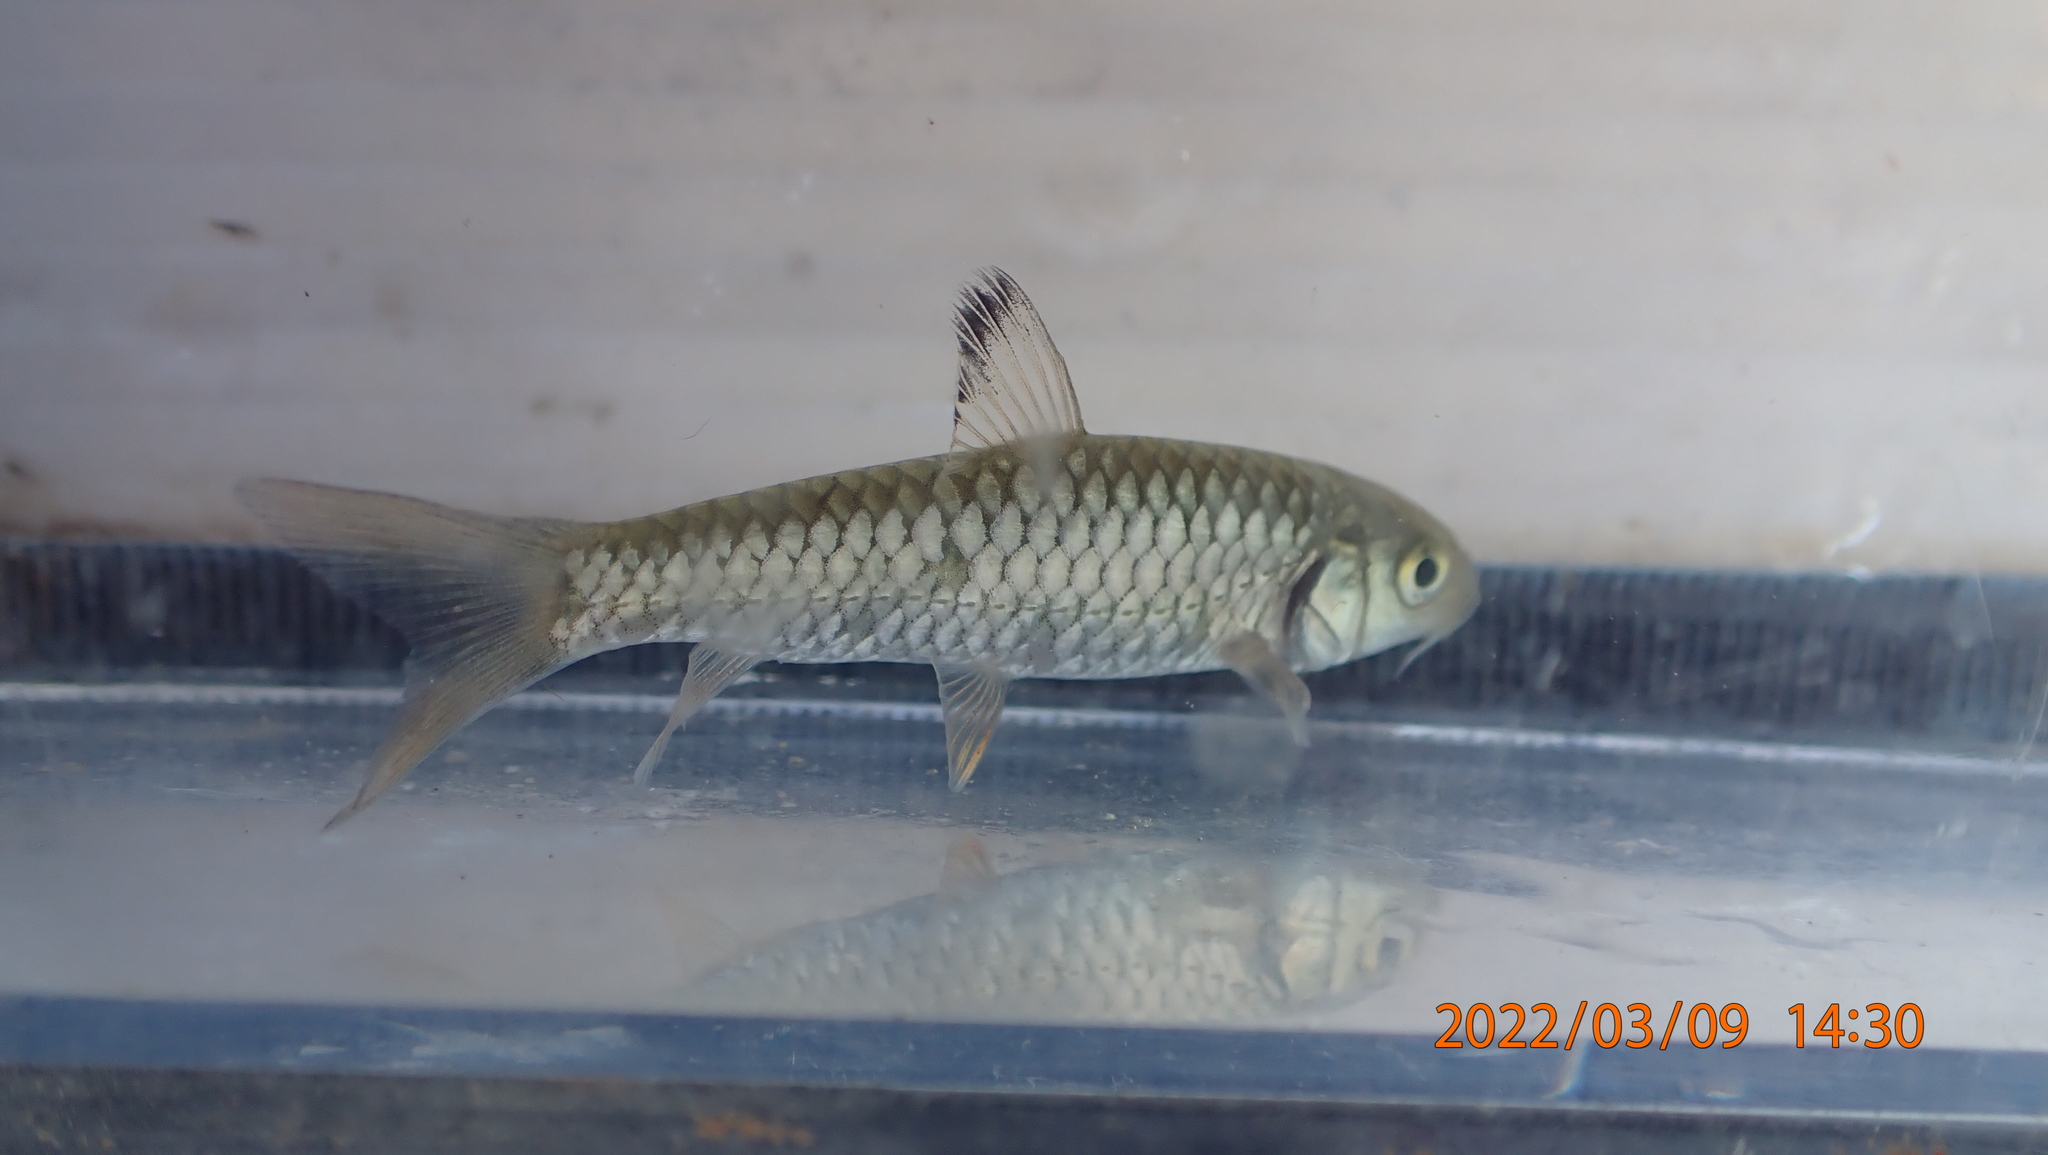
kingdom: Animalia
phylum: Chordata
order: Cypriniformes
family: Cyprinidae
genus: Spinibarbus
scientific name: Spinibarbus hollandi
